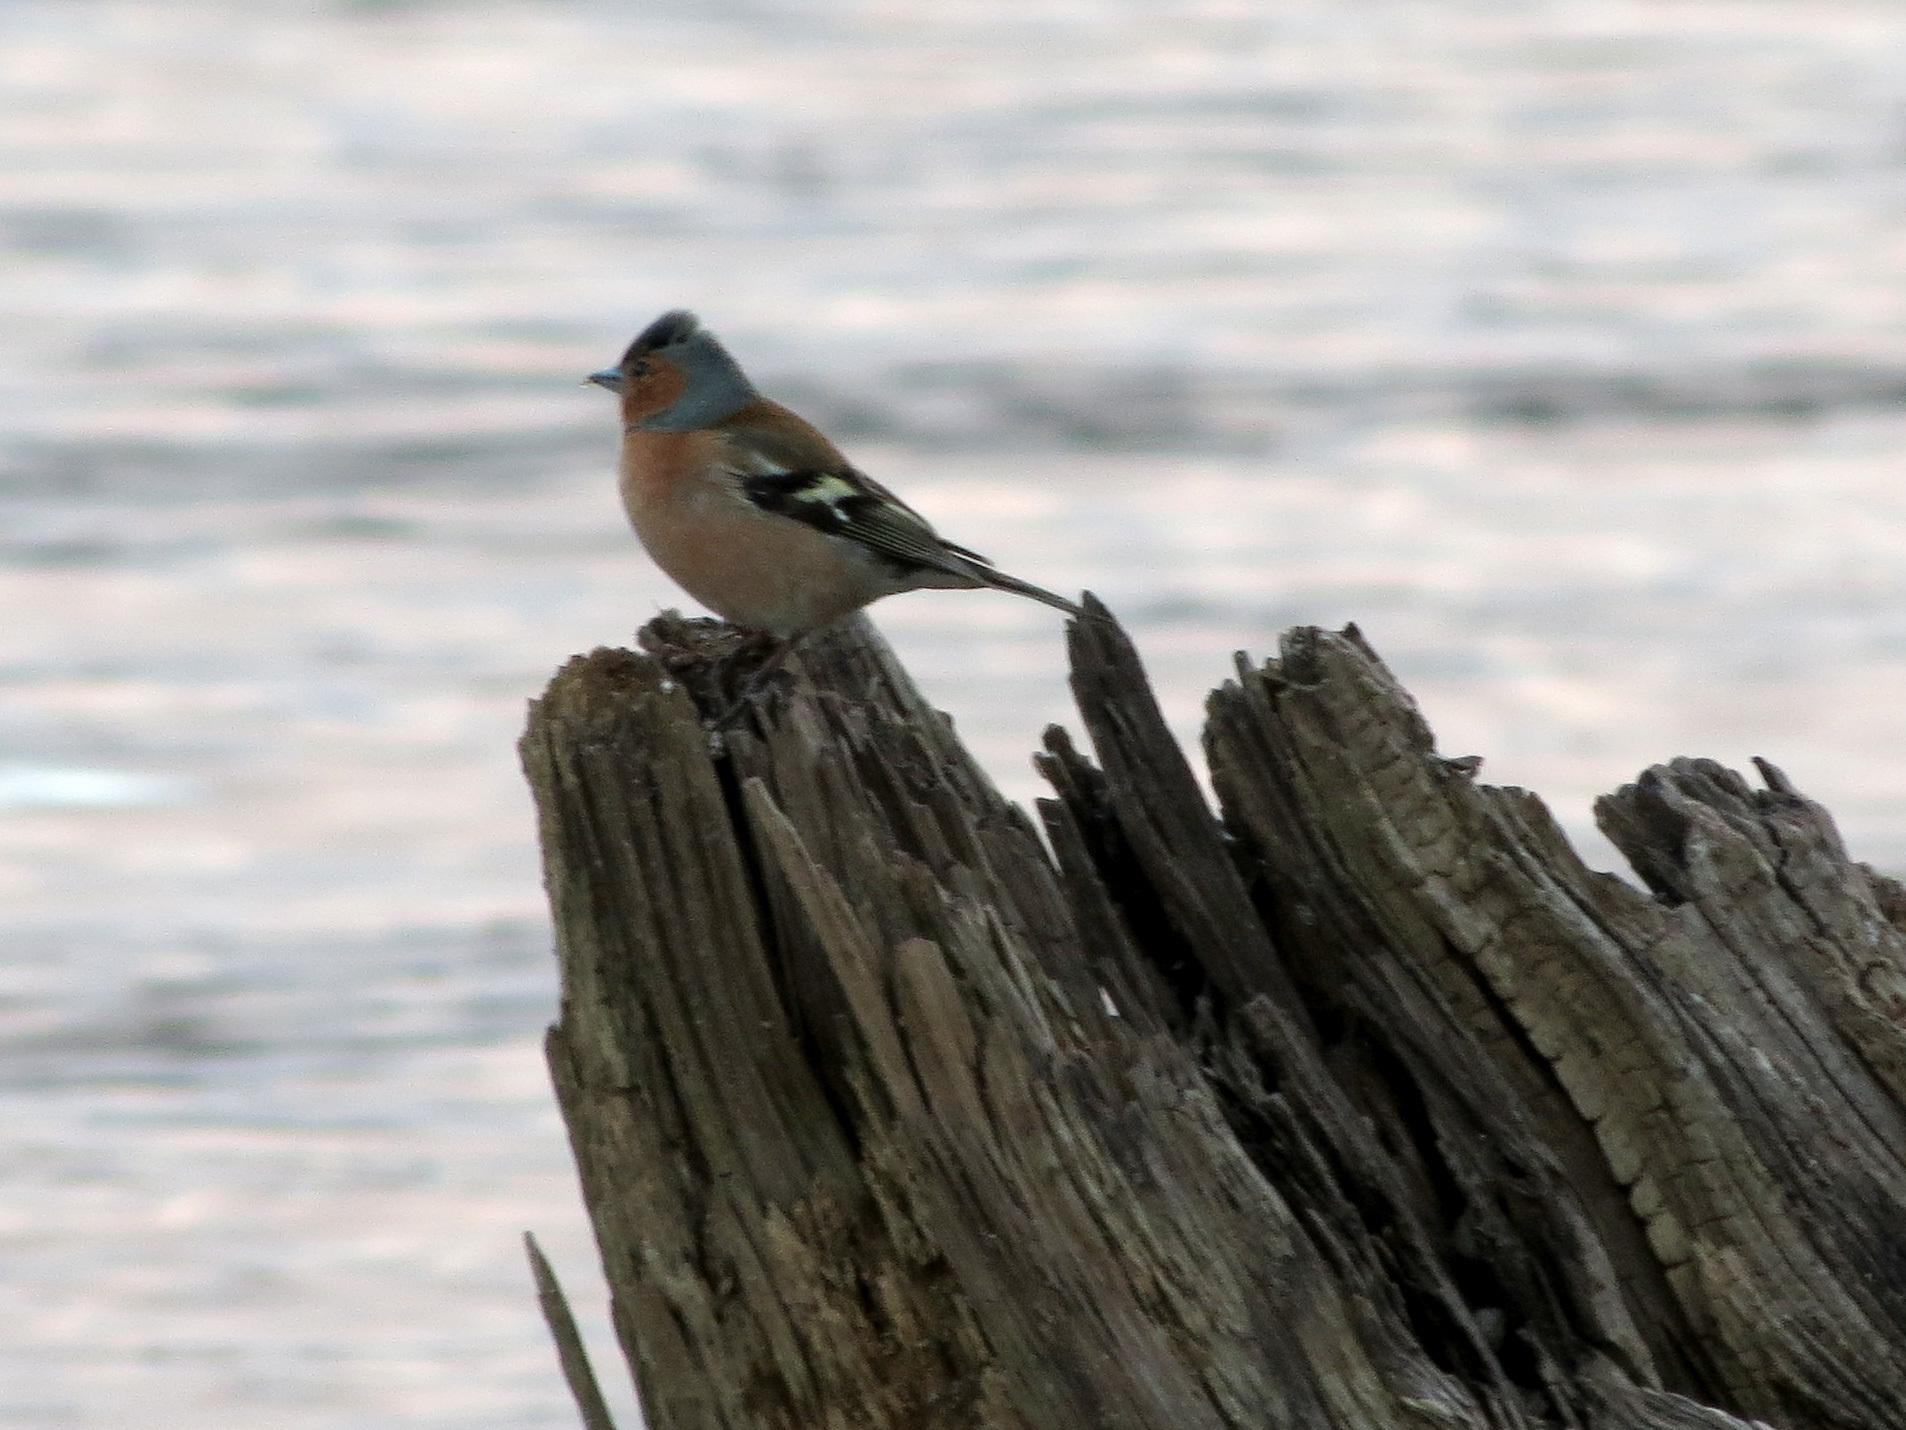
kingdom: Animalia
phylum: Chordata
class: Aves
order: Passeriformes
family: Fringillidae
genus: Fringilla
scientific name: Fringilla coelebs
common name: Common chaffinch
